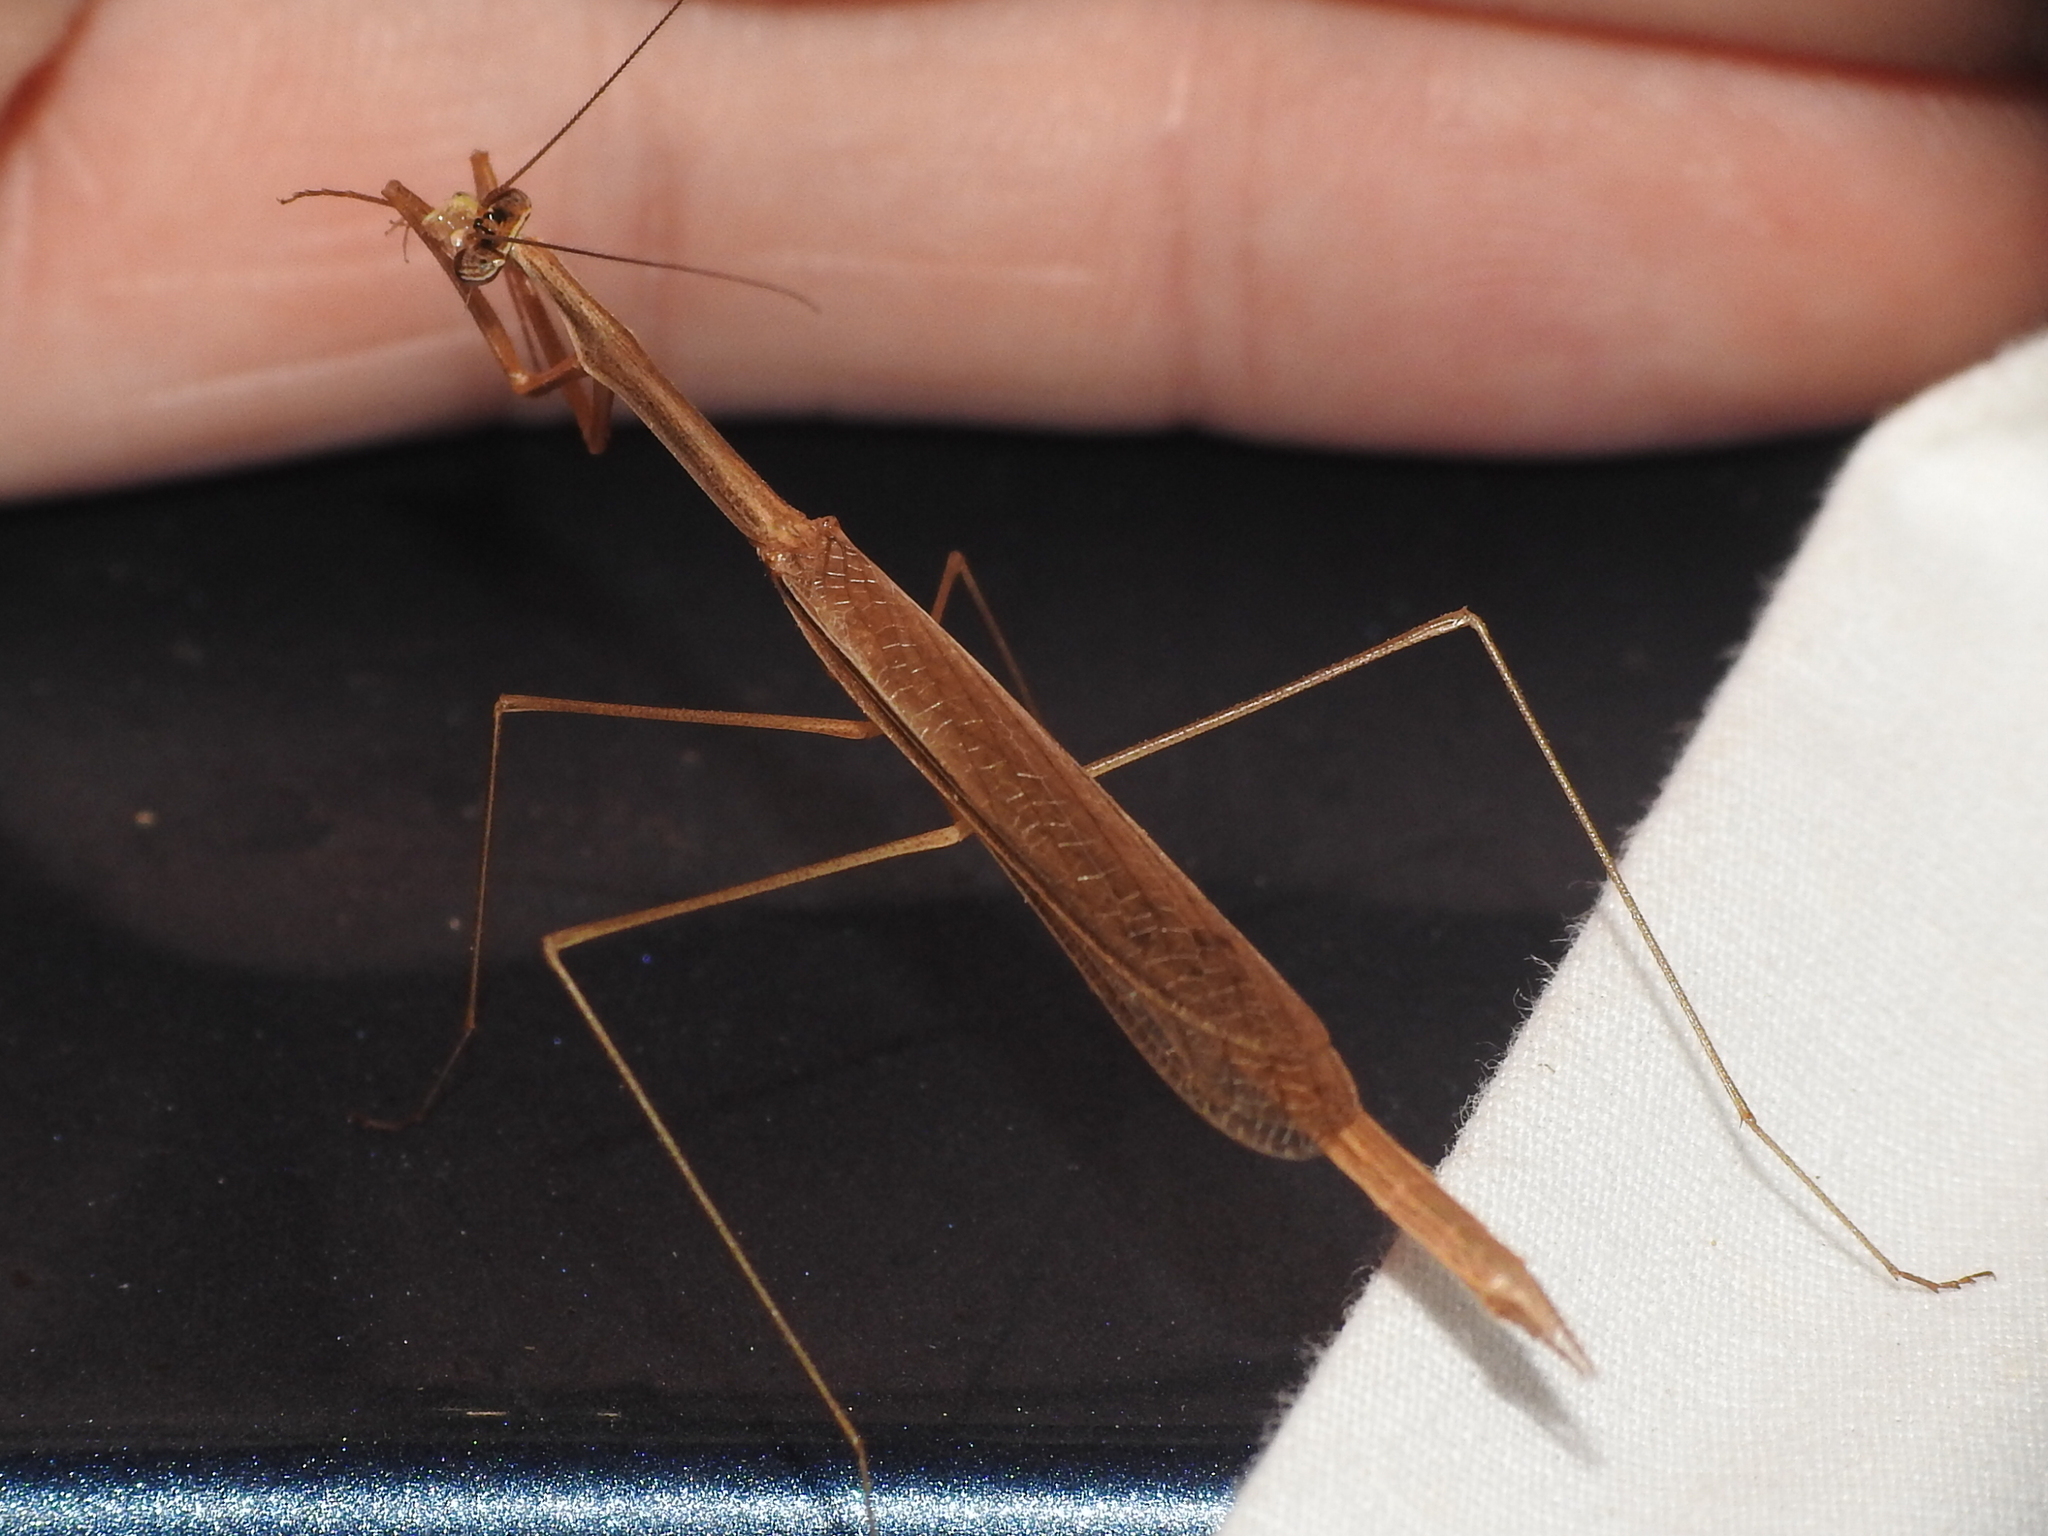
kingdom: Animalia
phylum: Arthropoda
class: Insecta
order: Mantodea
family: Thespidae
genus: Bistanta
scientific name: Bistanta campestris
